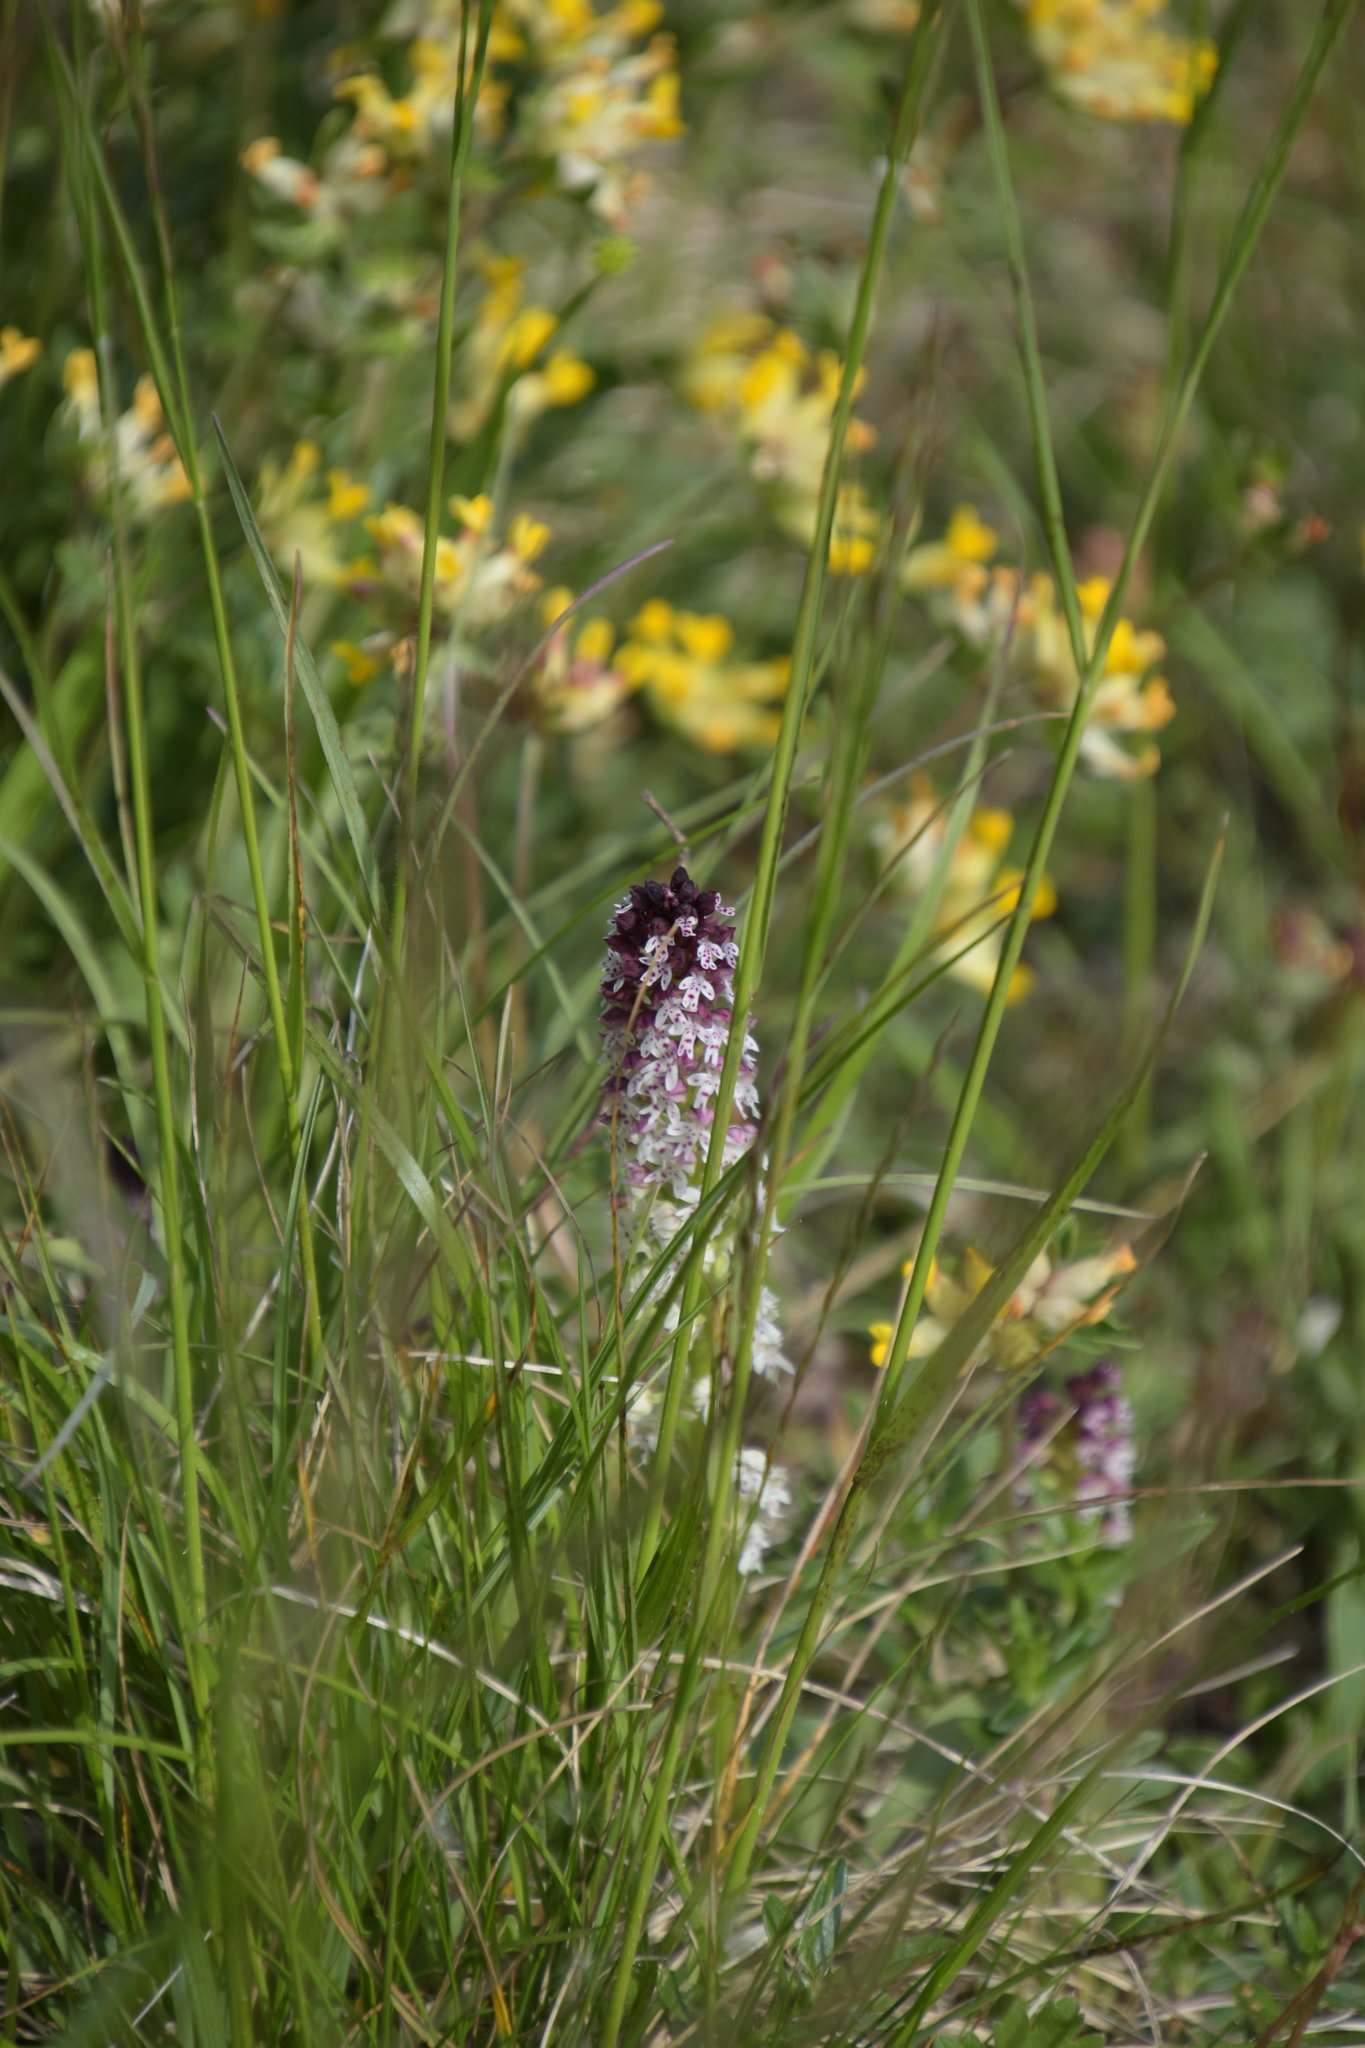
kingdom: Plantae
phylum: Tracheophyta
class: Liliopsida
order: Asparagales
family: Orchidaceae
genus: Neotinea
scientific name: Neotinea ustulata
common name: Burnt orchid
